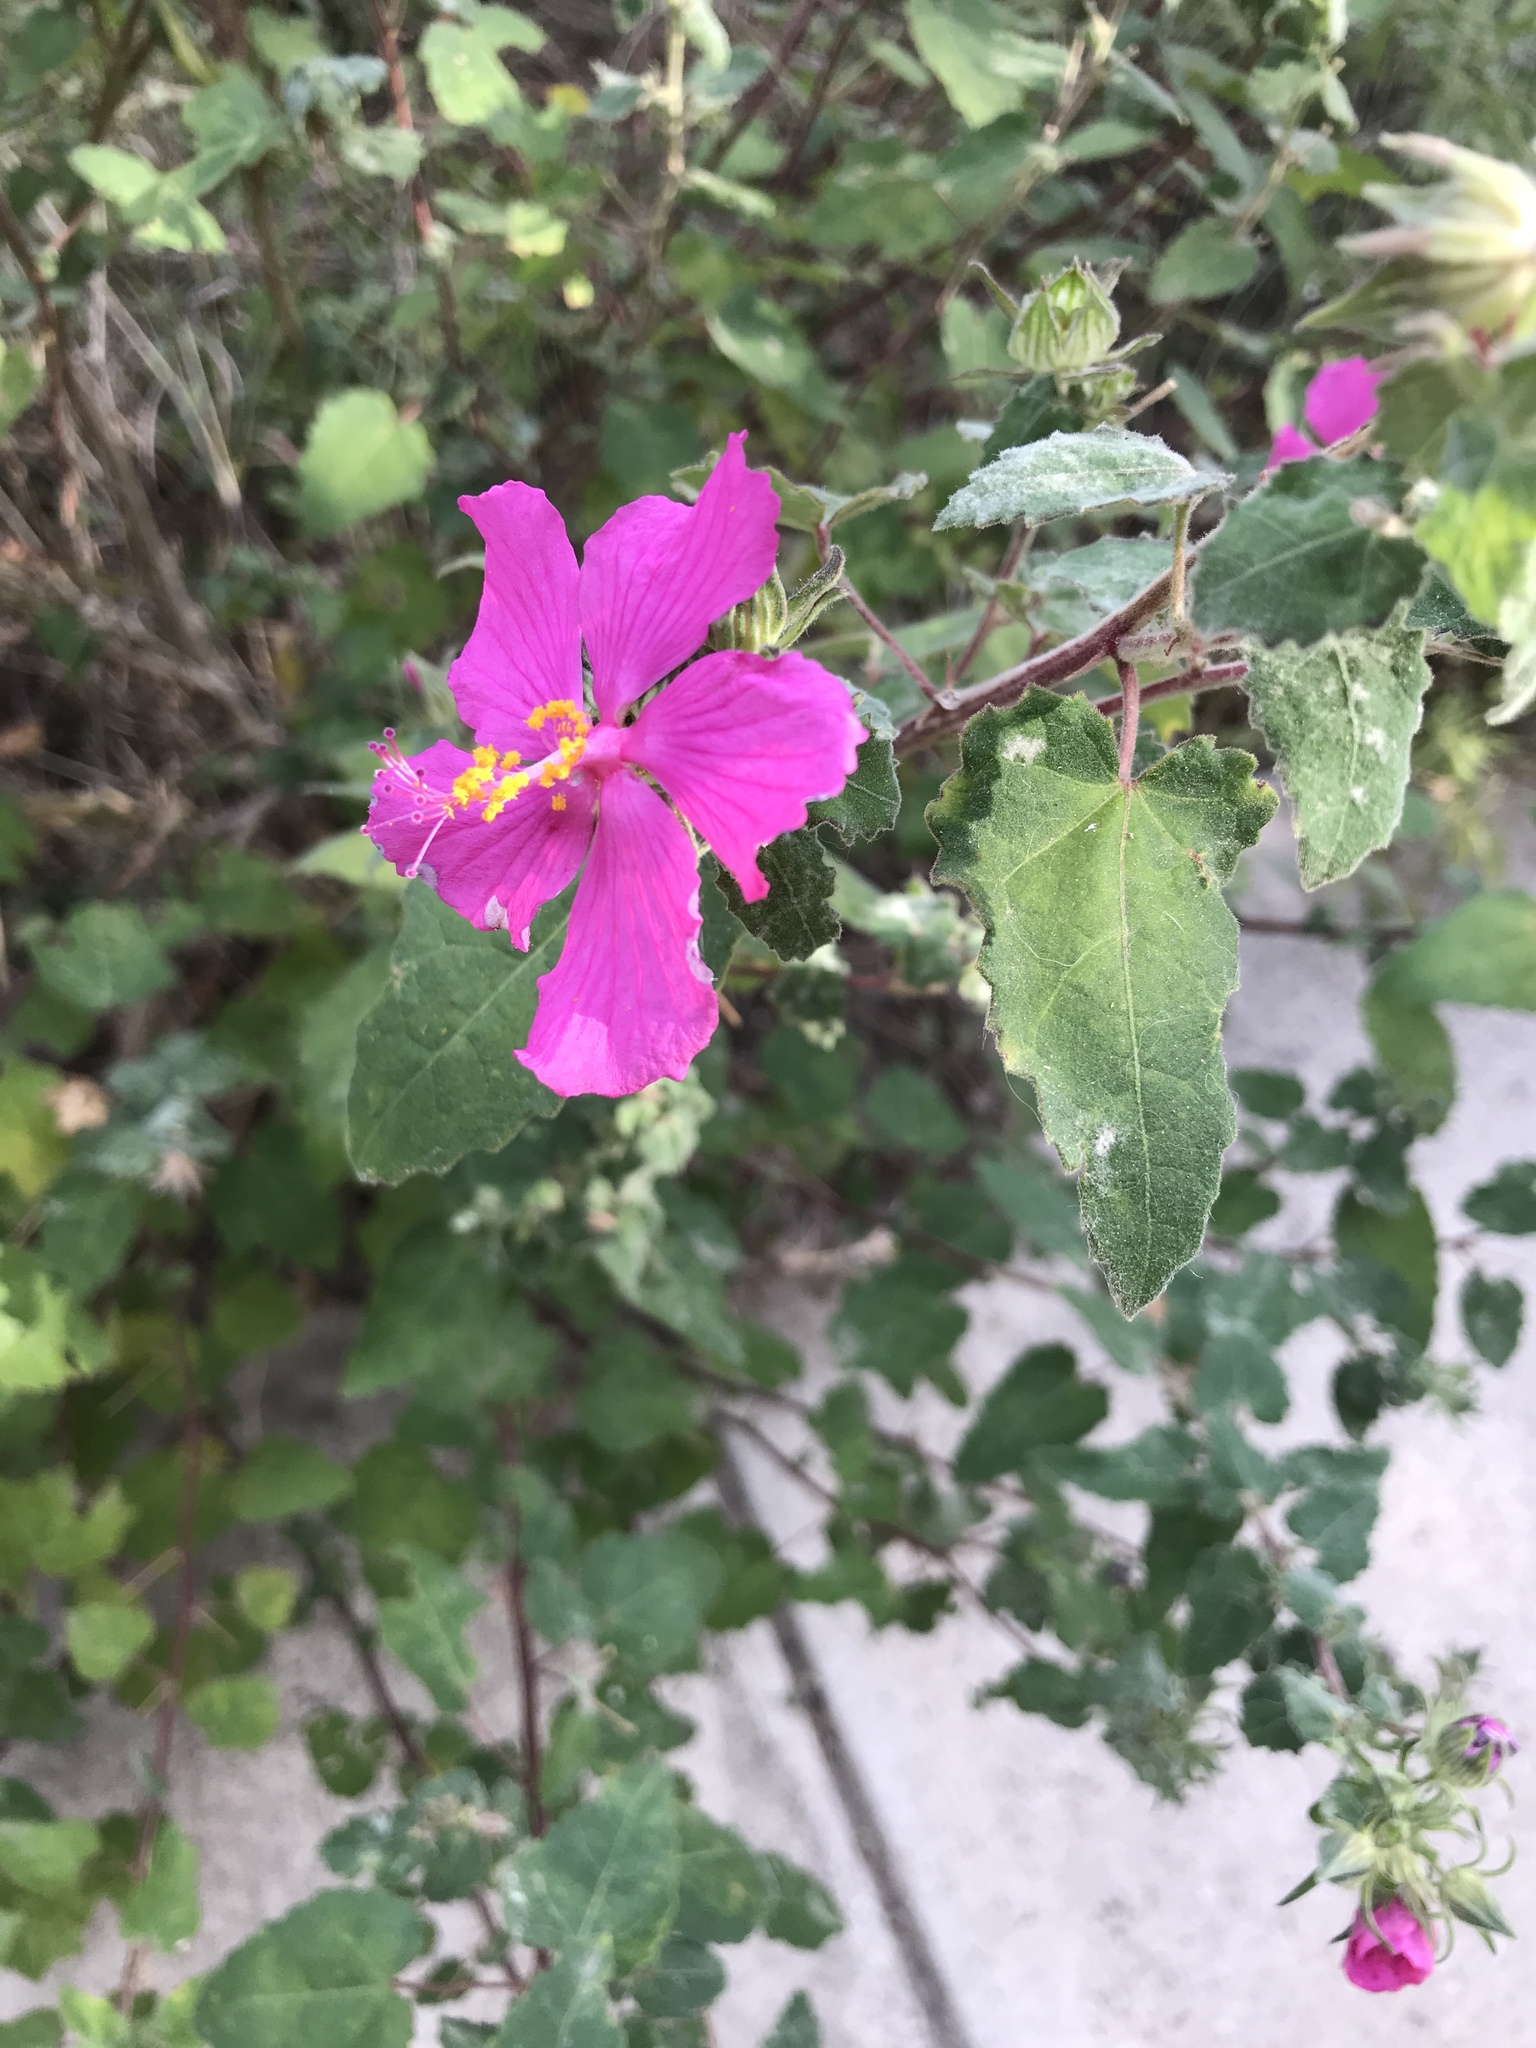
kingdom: Plantae
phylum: Tracheophyta
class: Magnoliopsida
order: Malvales
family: Malvaceae
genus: Pavonia
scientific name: Pavonia lasiopetala
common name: Texas swamp-mallow
